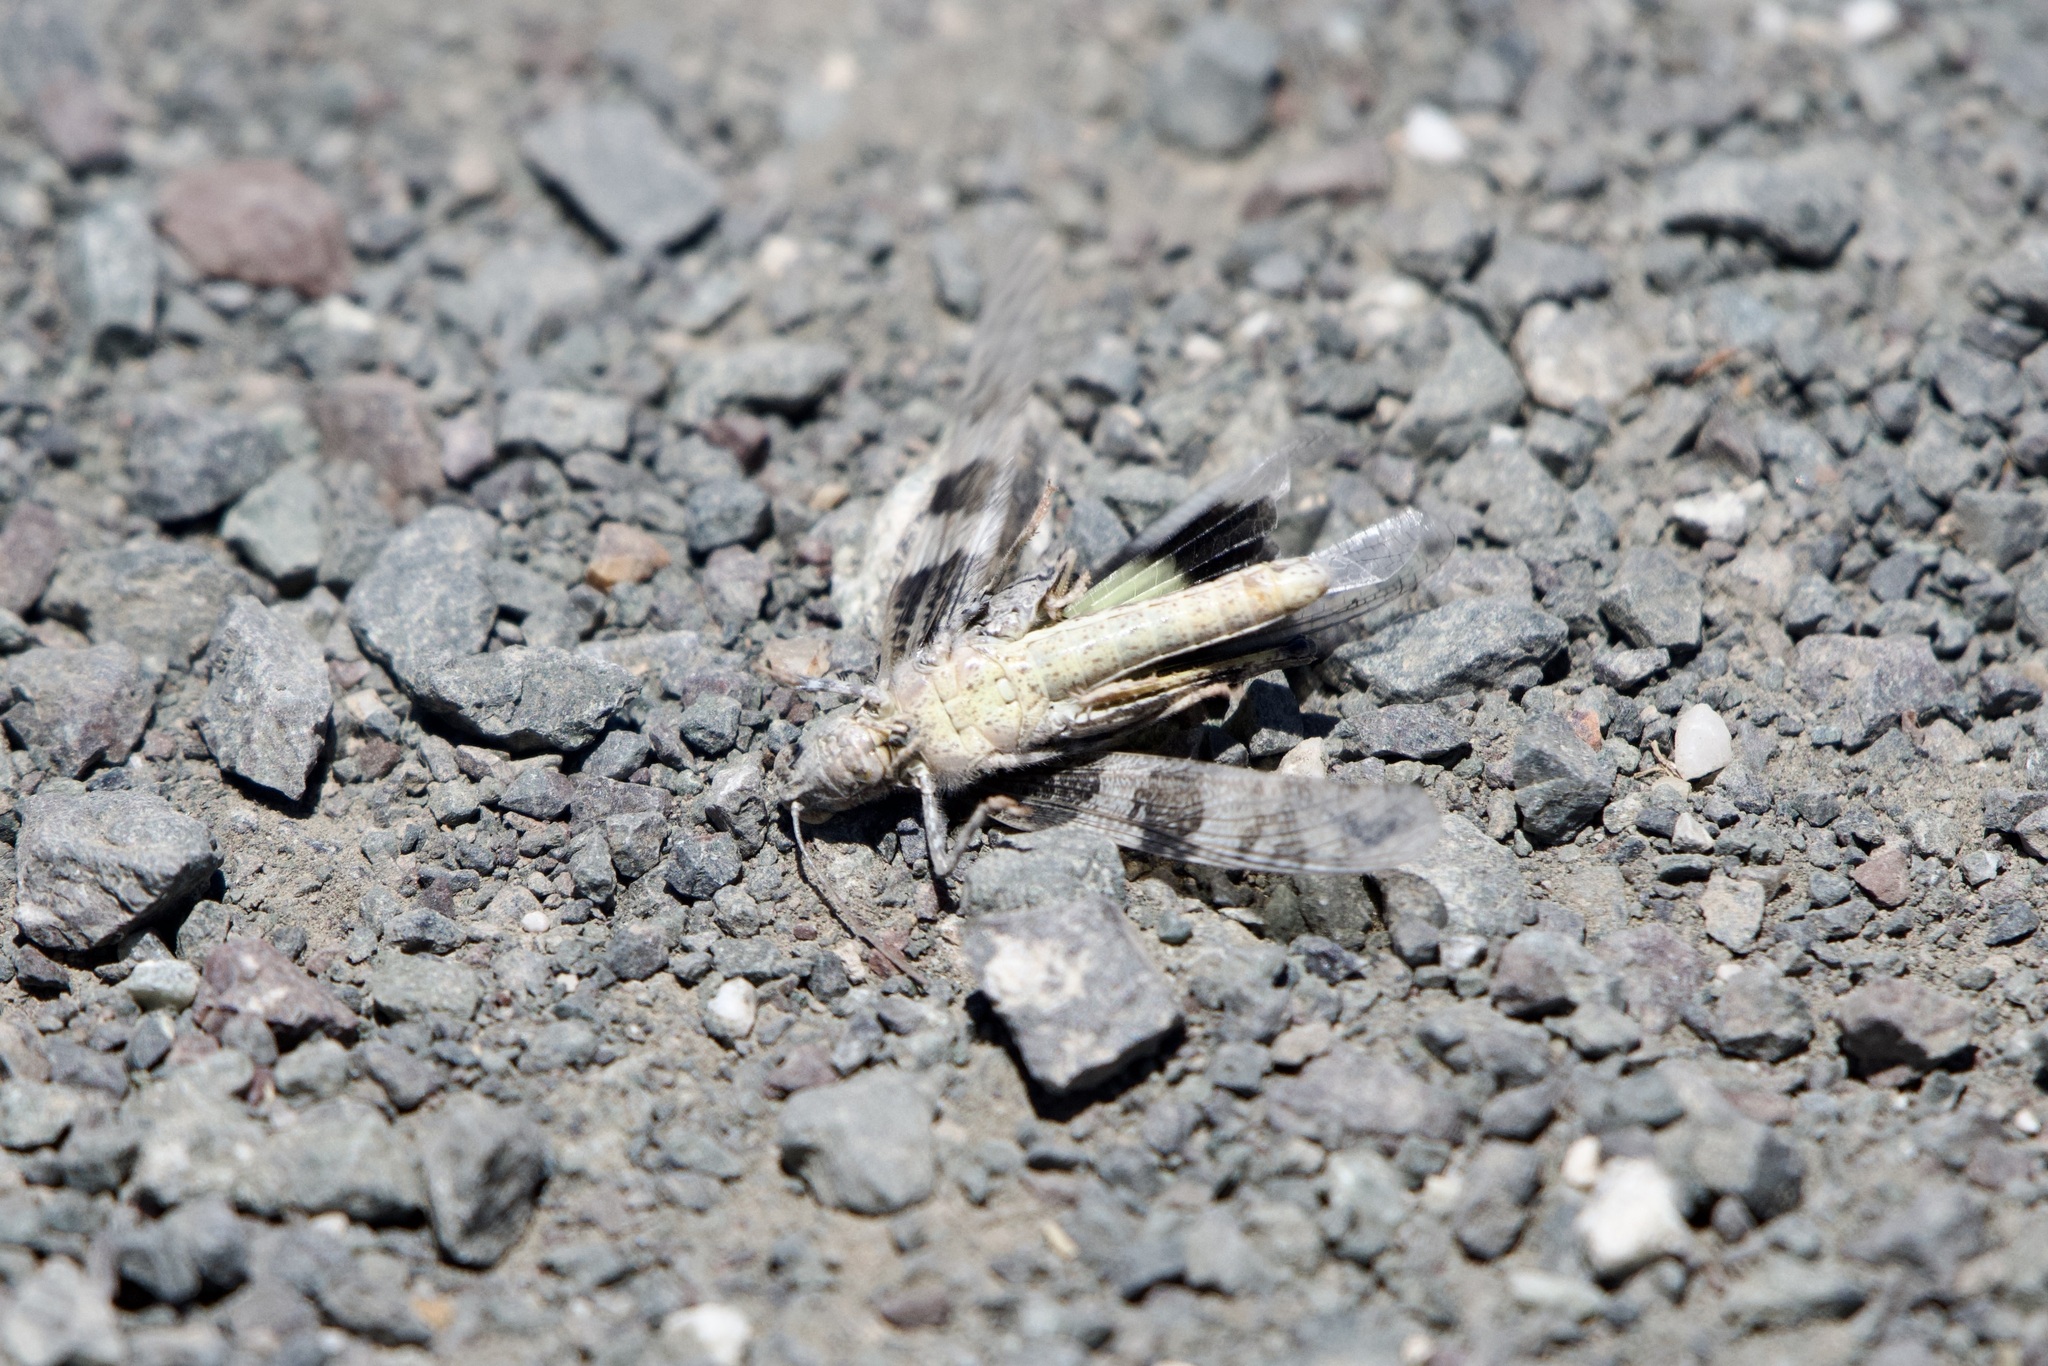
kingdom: Animalia
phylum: Arthropoda
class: Insecta
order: Orthoptera
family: Acrididae
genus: Trimerotropis
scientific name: Trimerotropis pallidipennis
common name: Pallid-winged grasshopper
